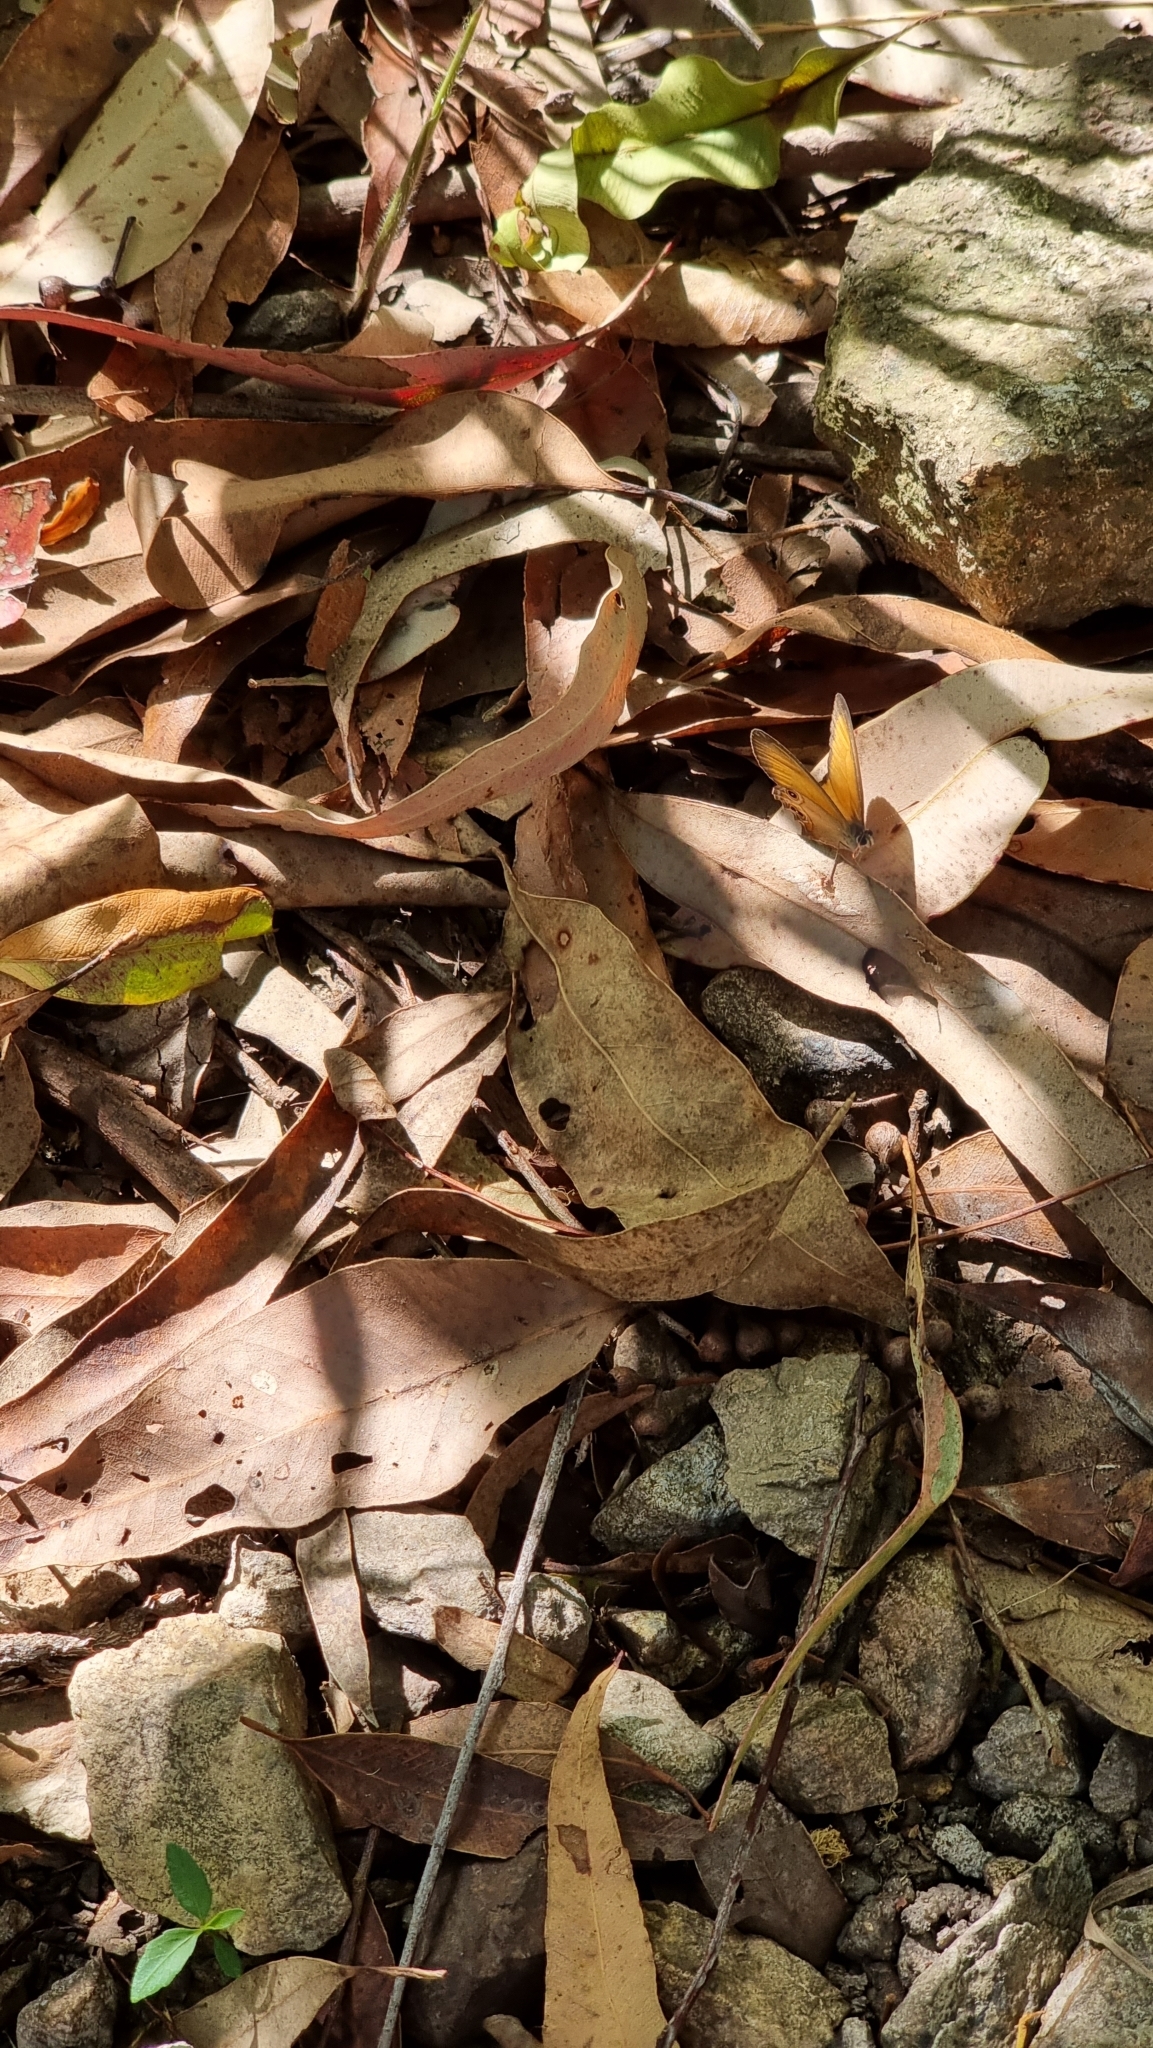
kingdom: Animalia
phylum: Arthropoda
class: Insecta
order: Lepidoptera
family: Nymphalidae
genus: Hypocysta
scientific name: Hypocysta adiante
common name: Orange ringlet
